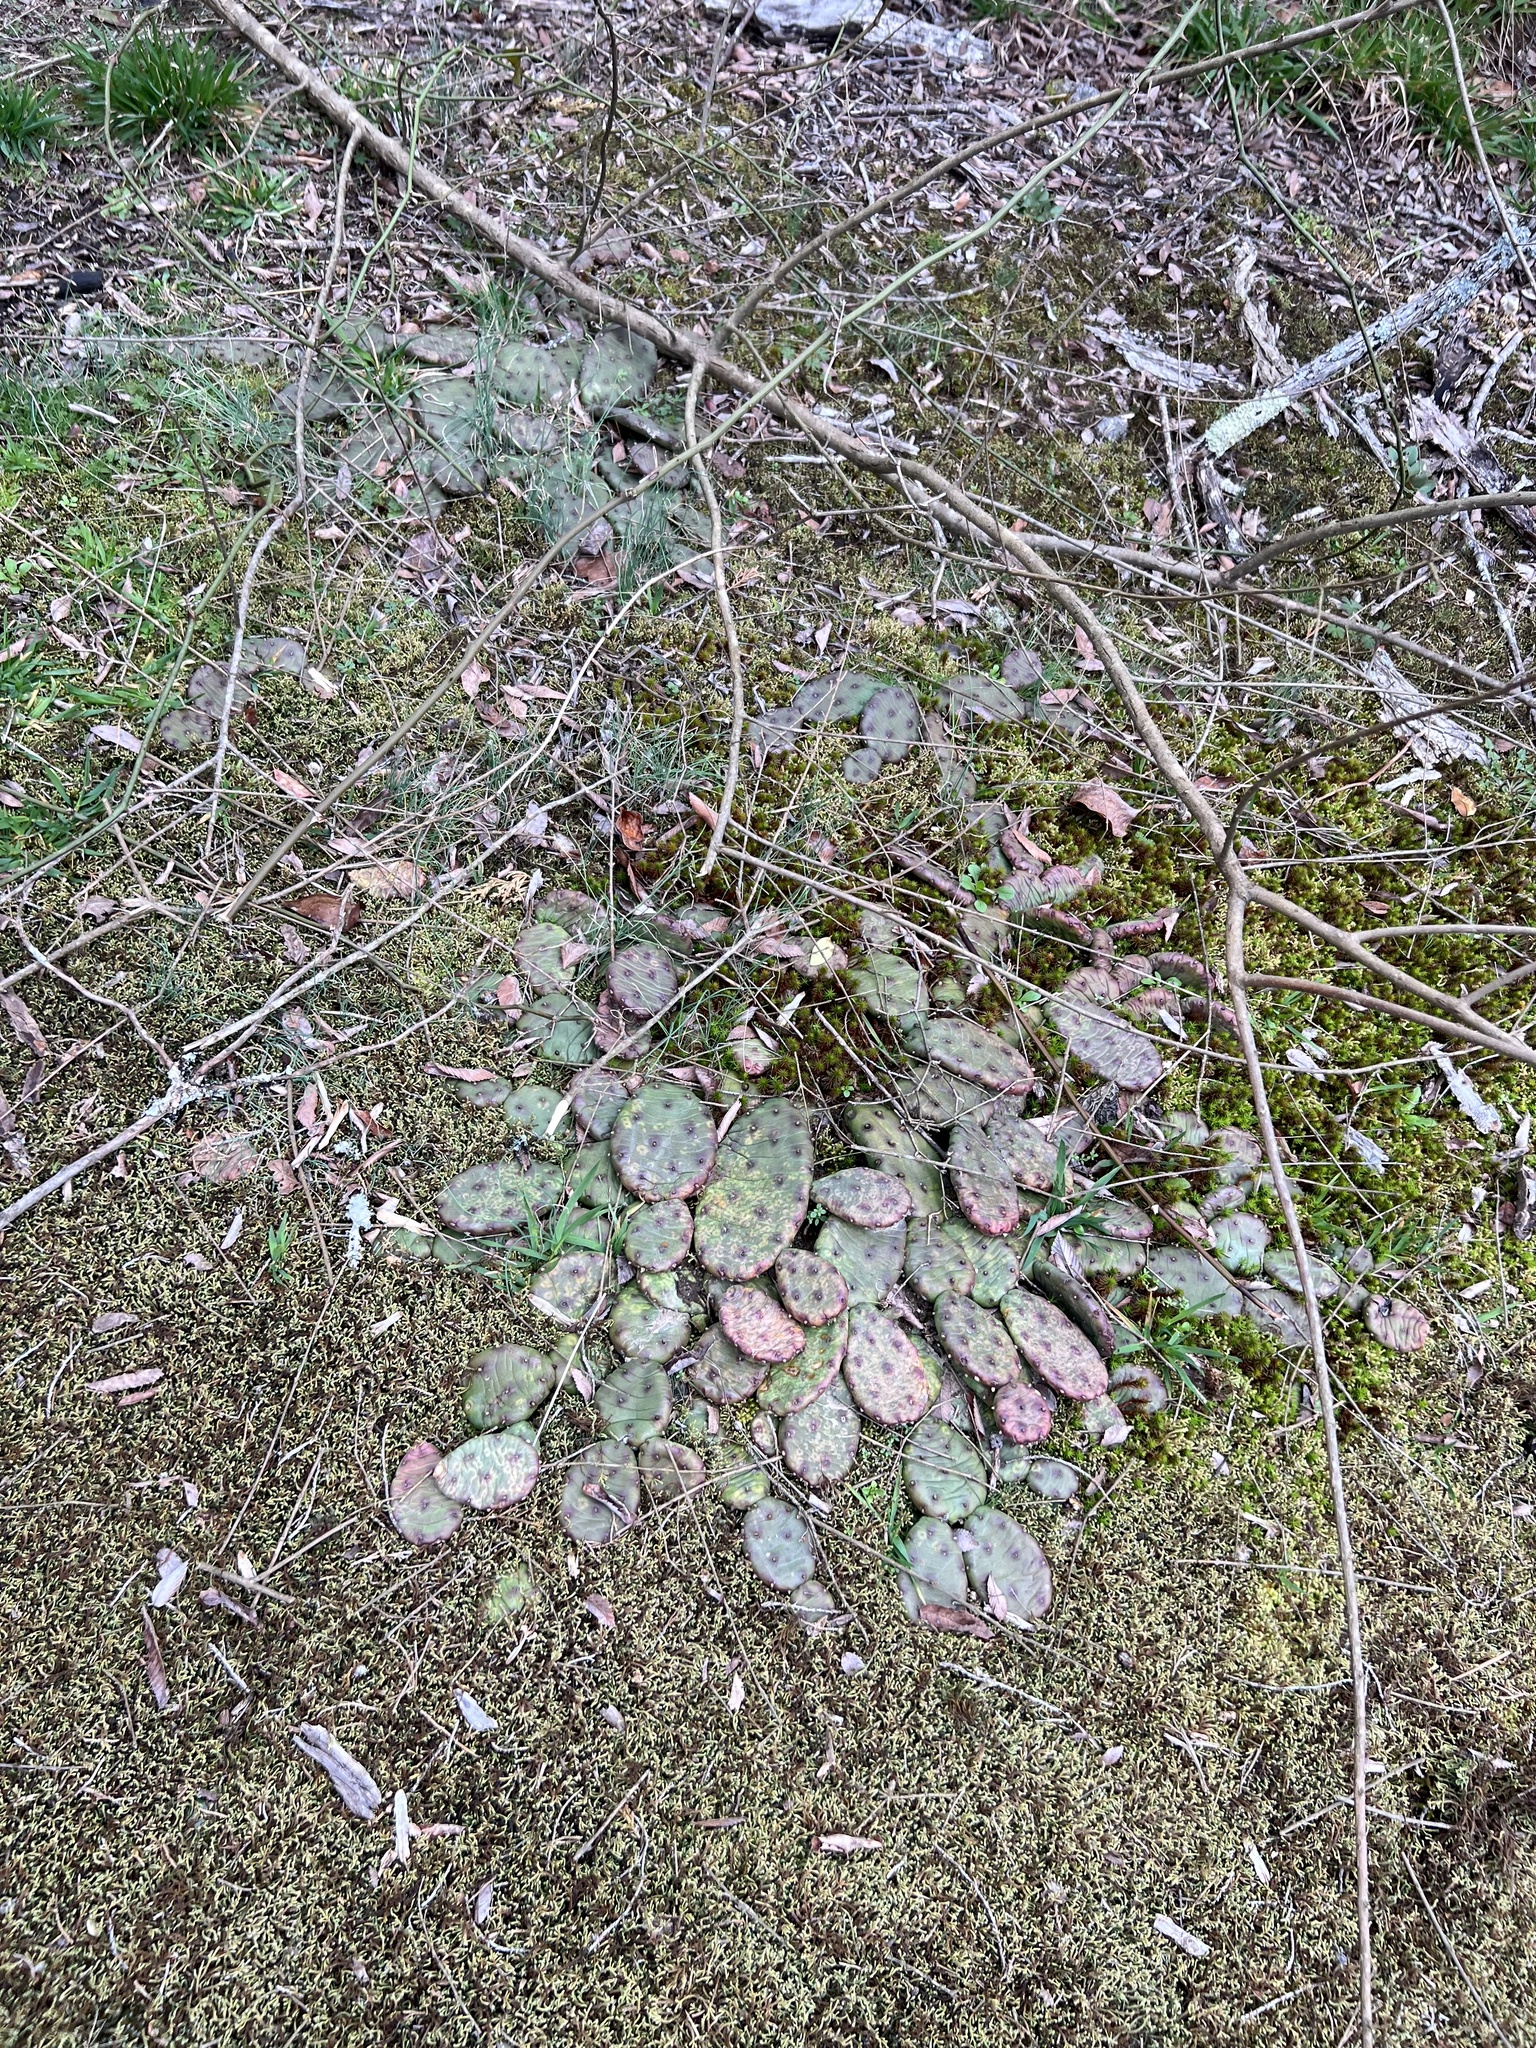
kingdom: Plantae
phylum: Tracheophyta
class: Magnoliopsida
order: Caryophyllales
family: Cactaceae
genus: Opuntia
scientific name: Opuntia mesacantha
